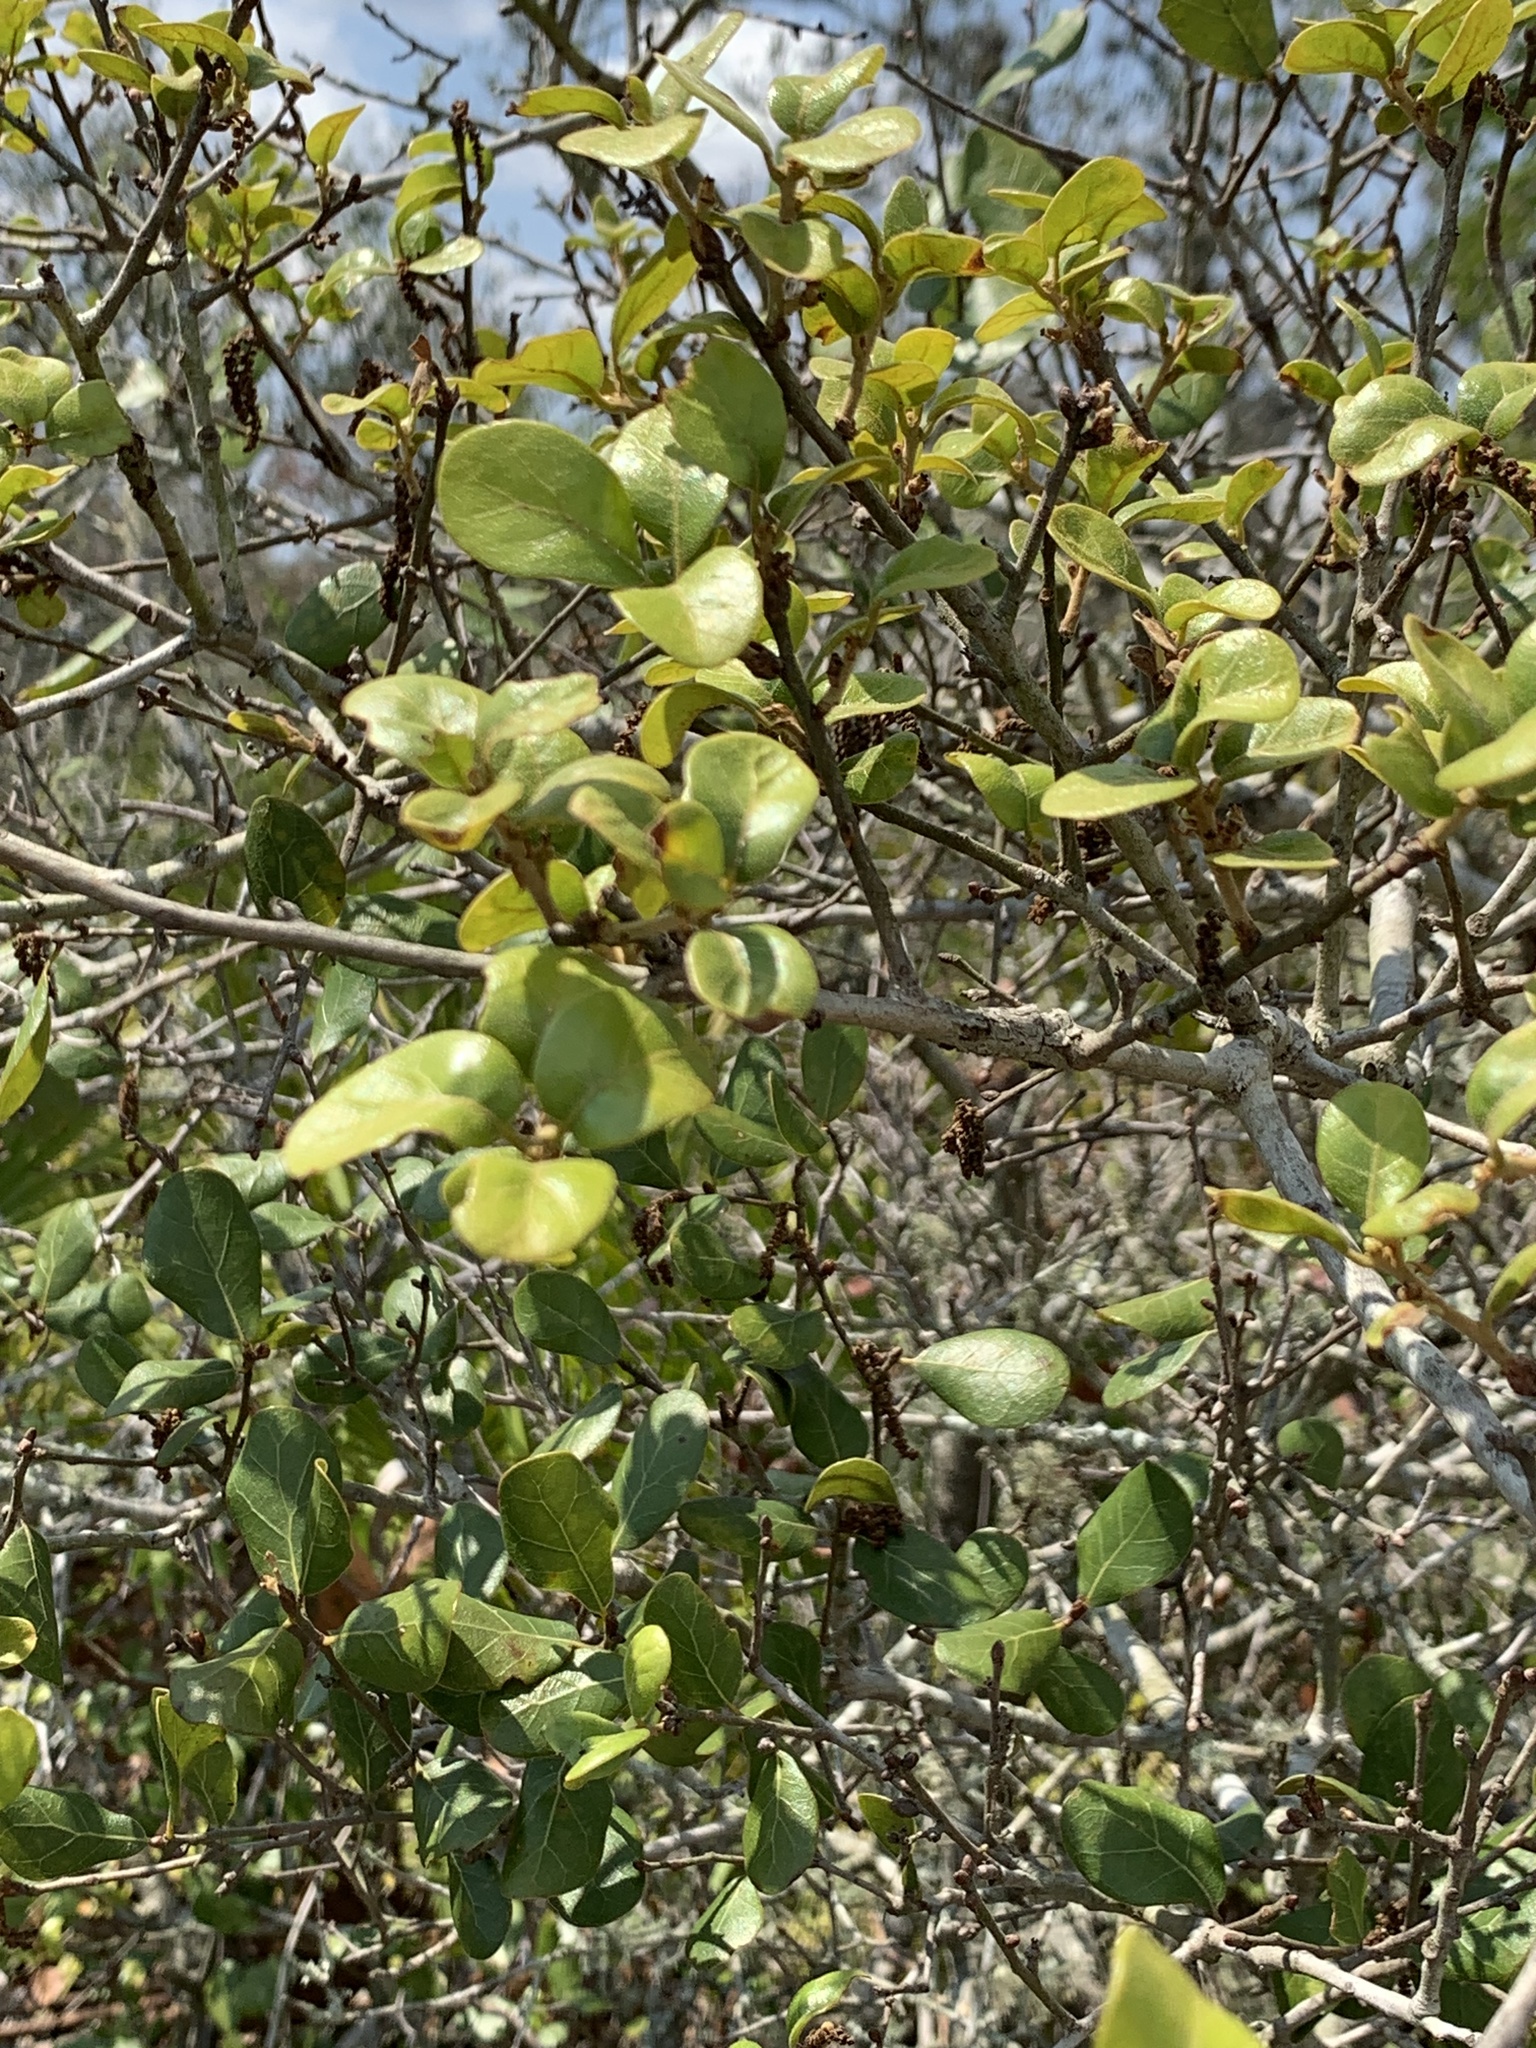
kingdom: Plantae
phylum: Tracheophyta
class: Magnoliopsida
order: Fagales
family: Fagaceae
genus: Quercus
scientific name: Quercus myrtifolia
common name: Myrtle oak
